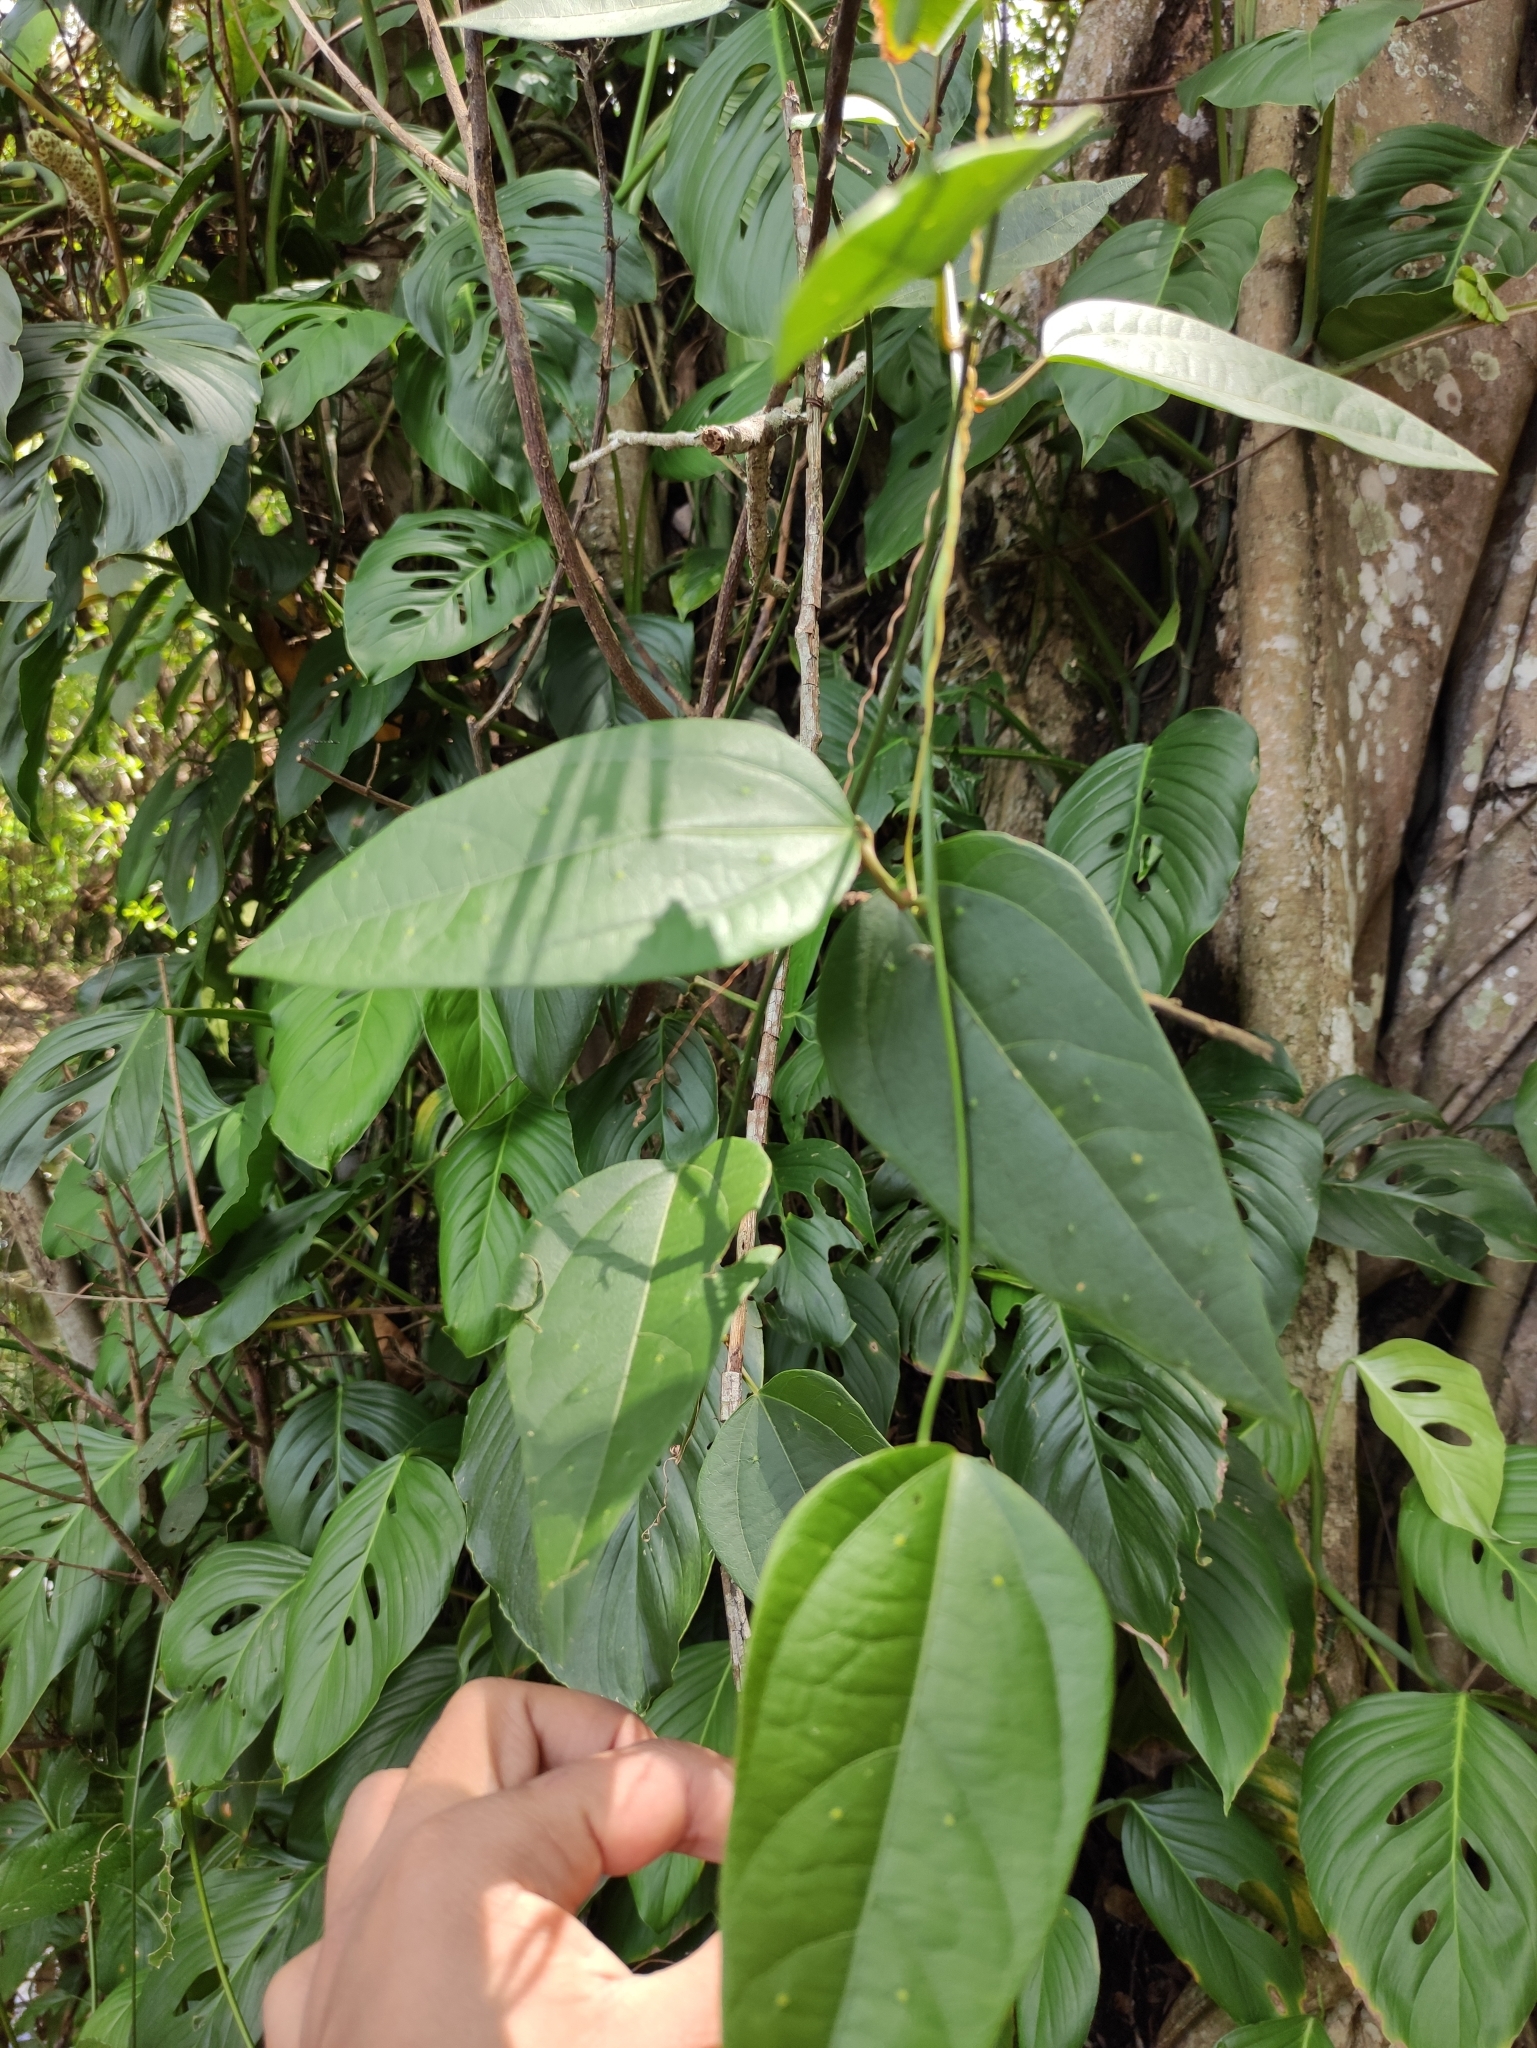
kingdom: Plantae
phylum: Tracheophyta
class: Magnoliopsida
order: Malpighiales
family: Passifloraceae
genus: Passiflora
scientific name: Passiflora auriculata
